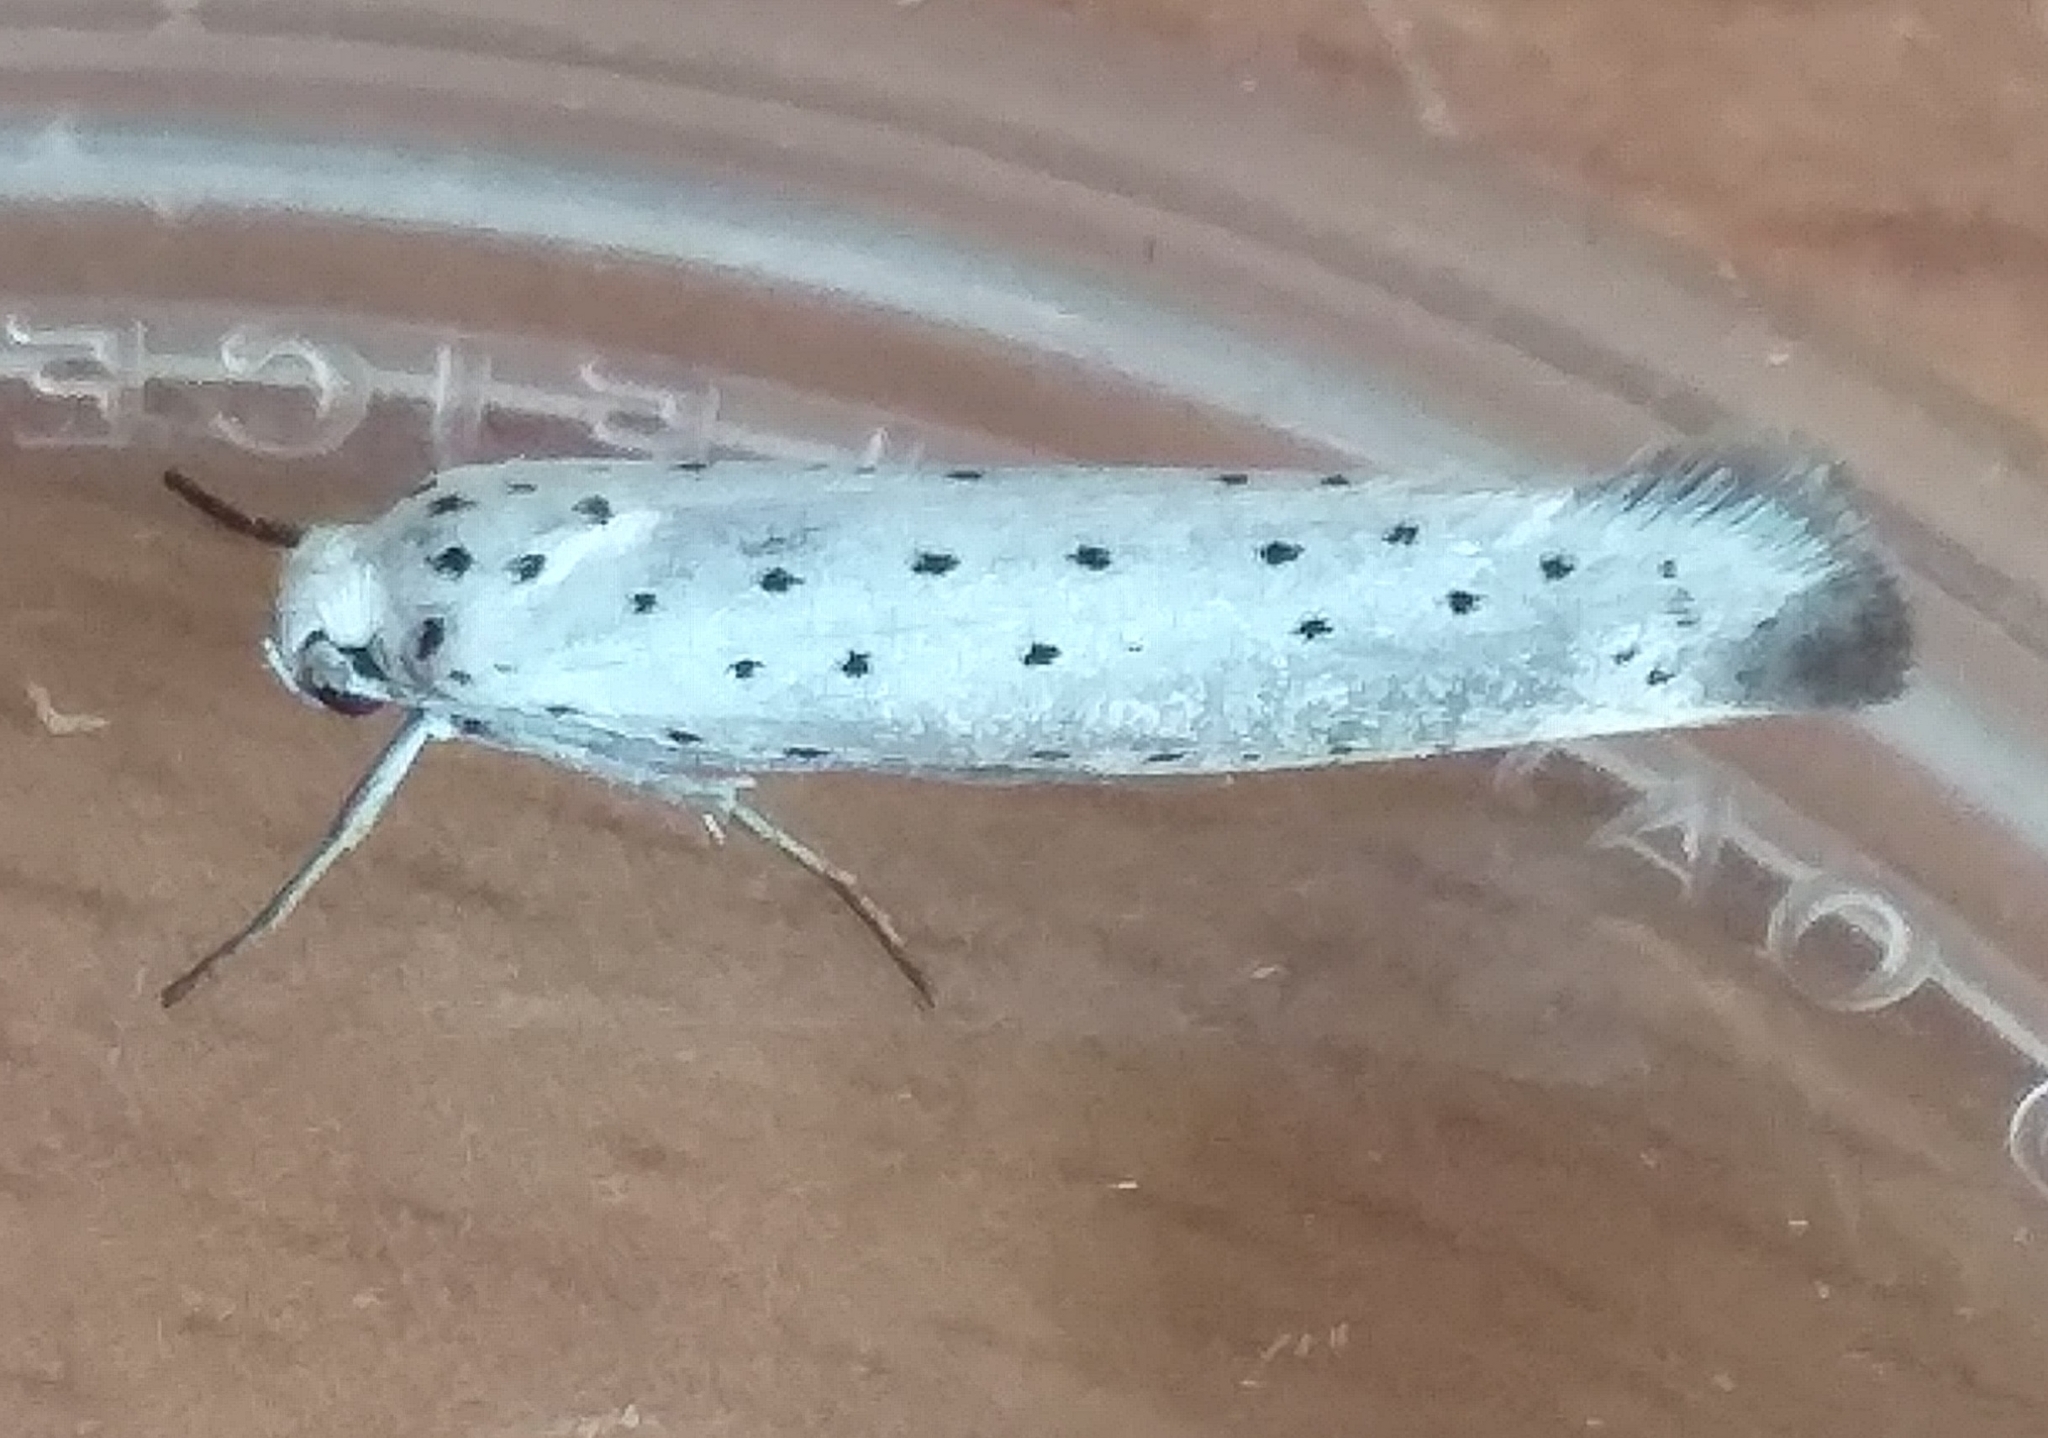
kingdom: Animalia
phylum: Arthropoda
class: Insecta
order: Lepidoptera
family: Yponomeutidae
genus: Yponomeuta
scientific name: Yponomeuta
